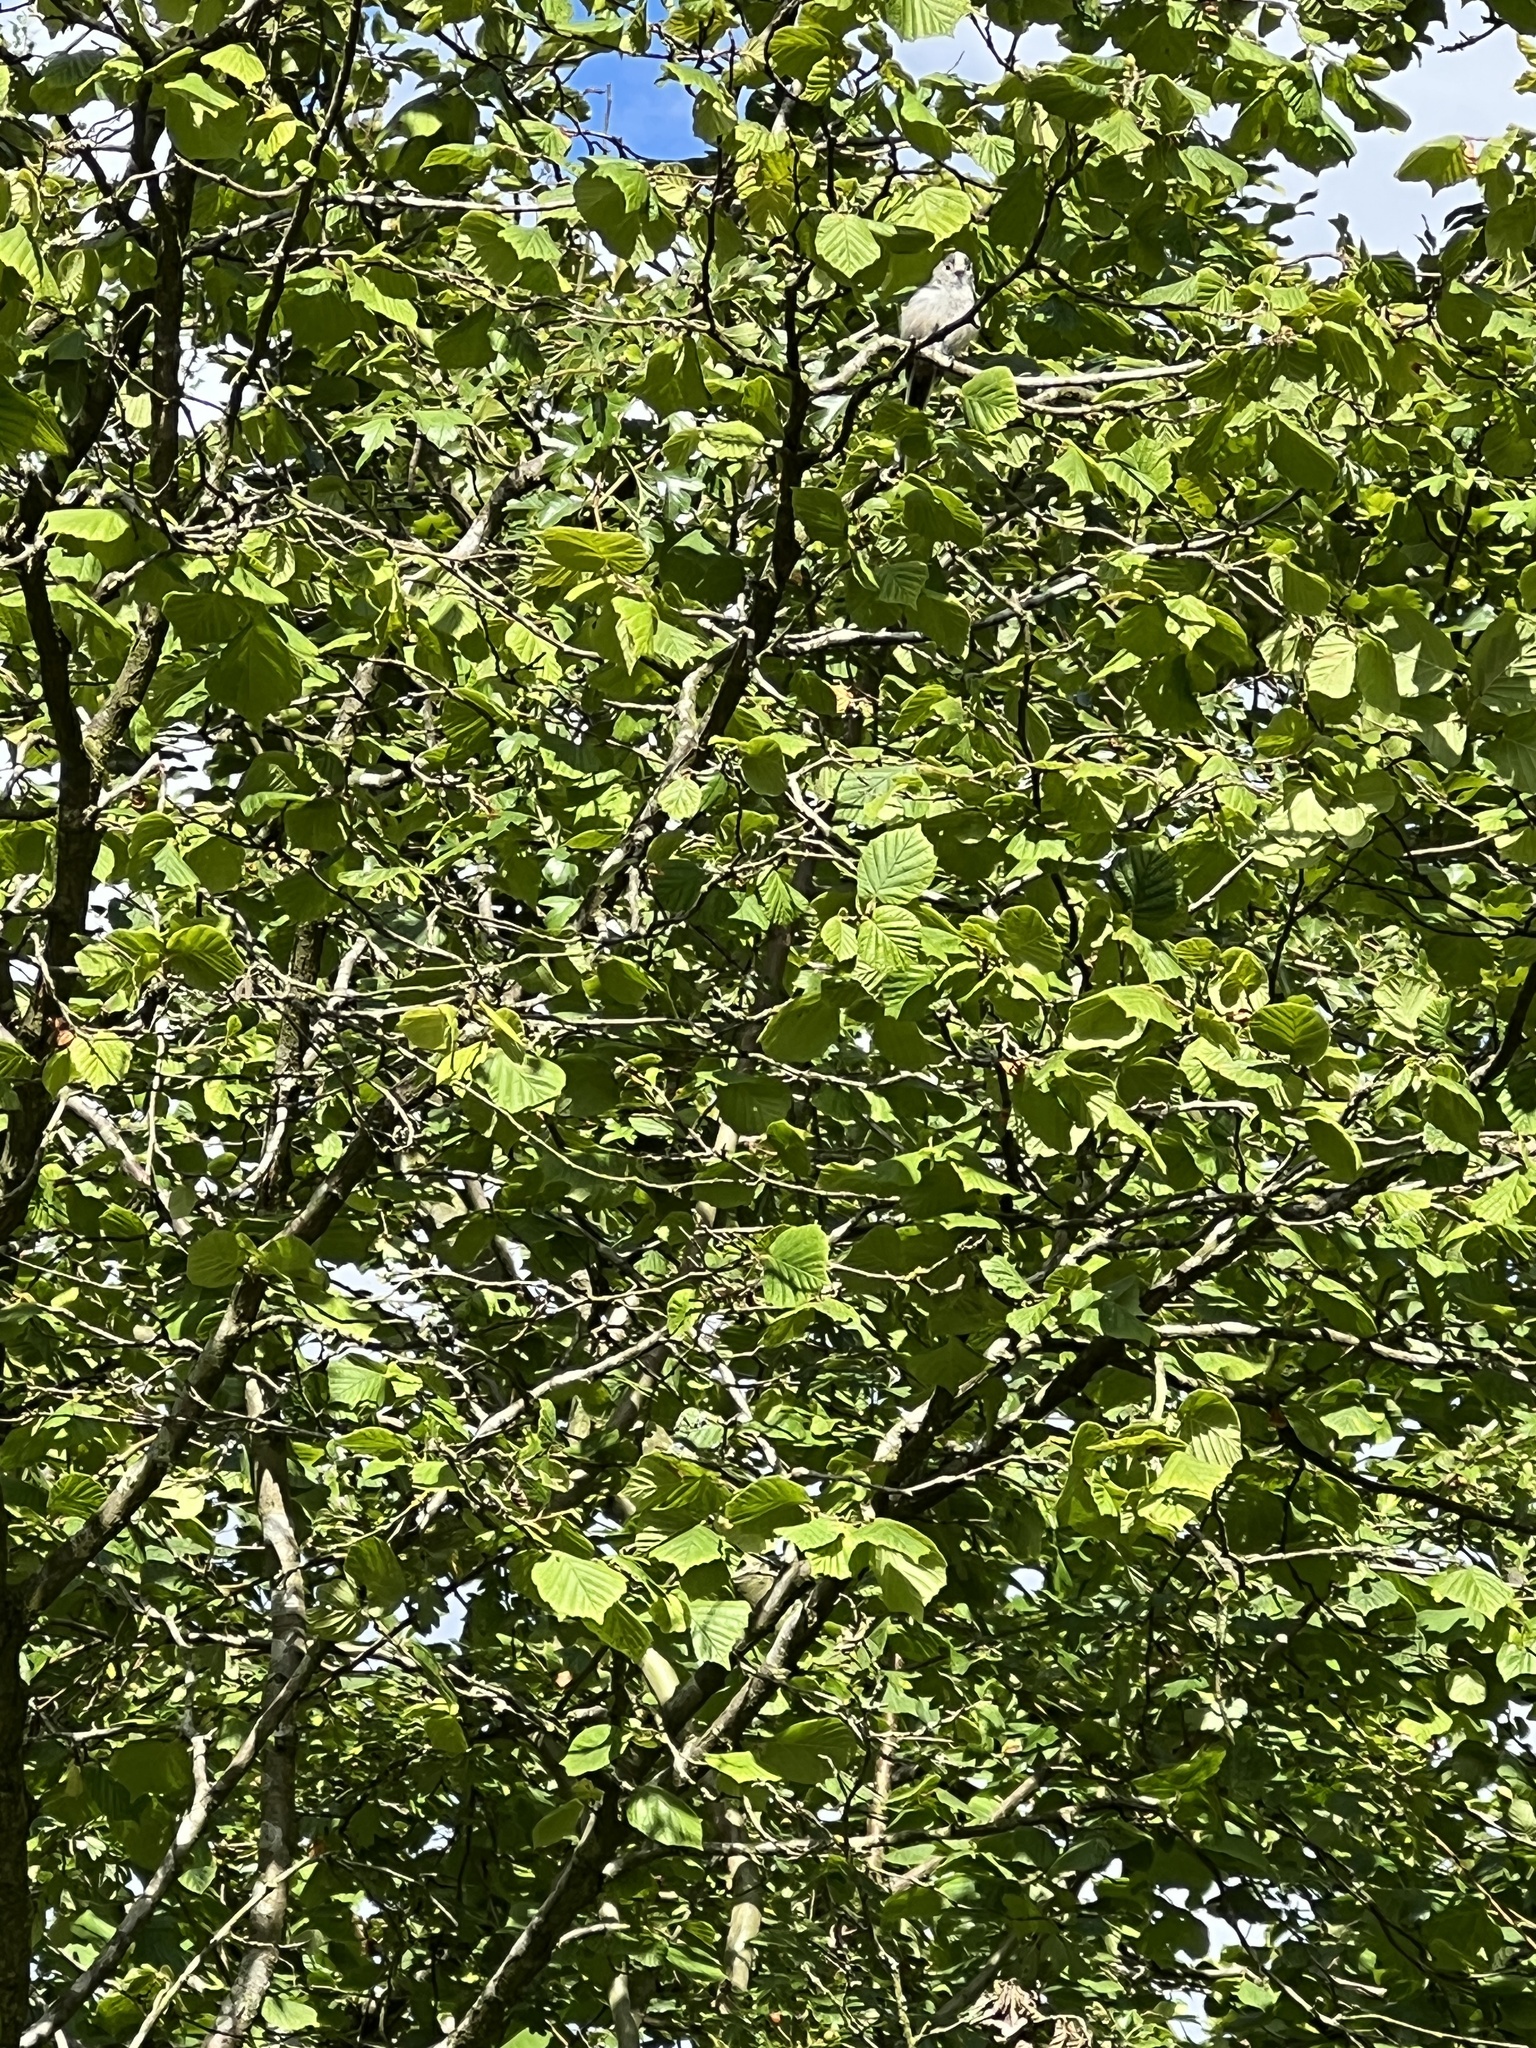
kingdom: Animalia
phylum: Chordata
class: Aves
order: Passeriformes
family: Aegithalidae
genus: Aegithalos
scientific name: Aegithalos caudatus
